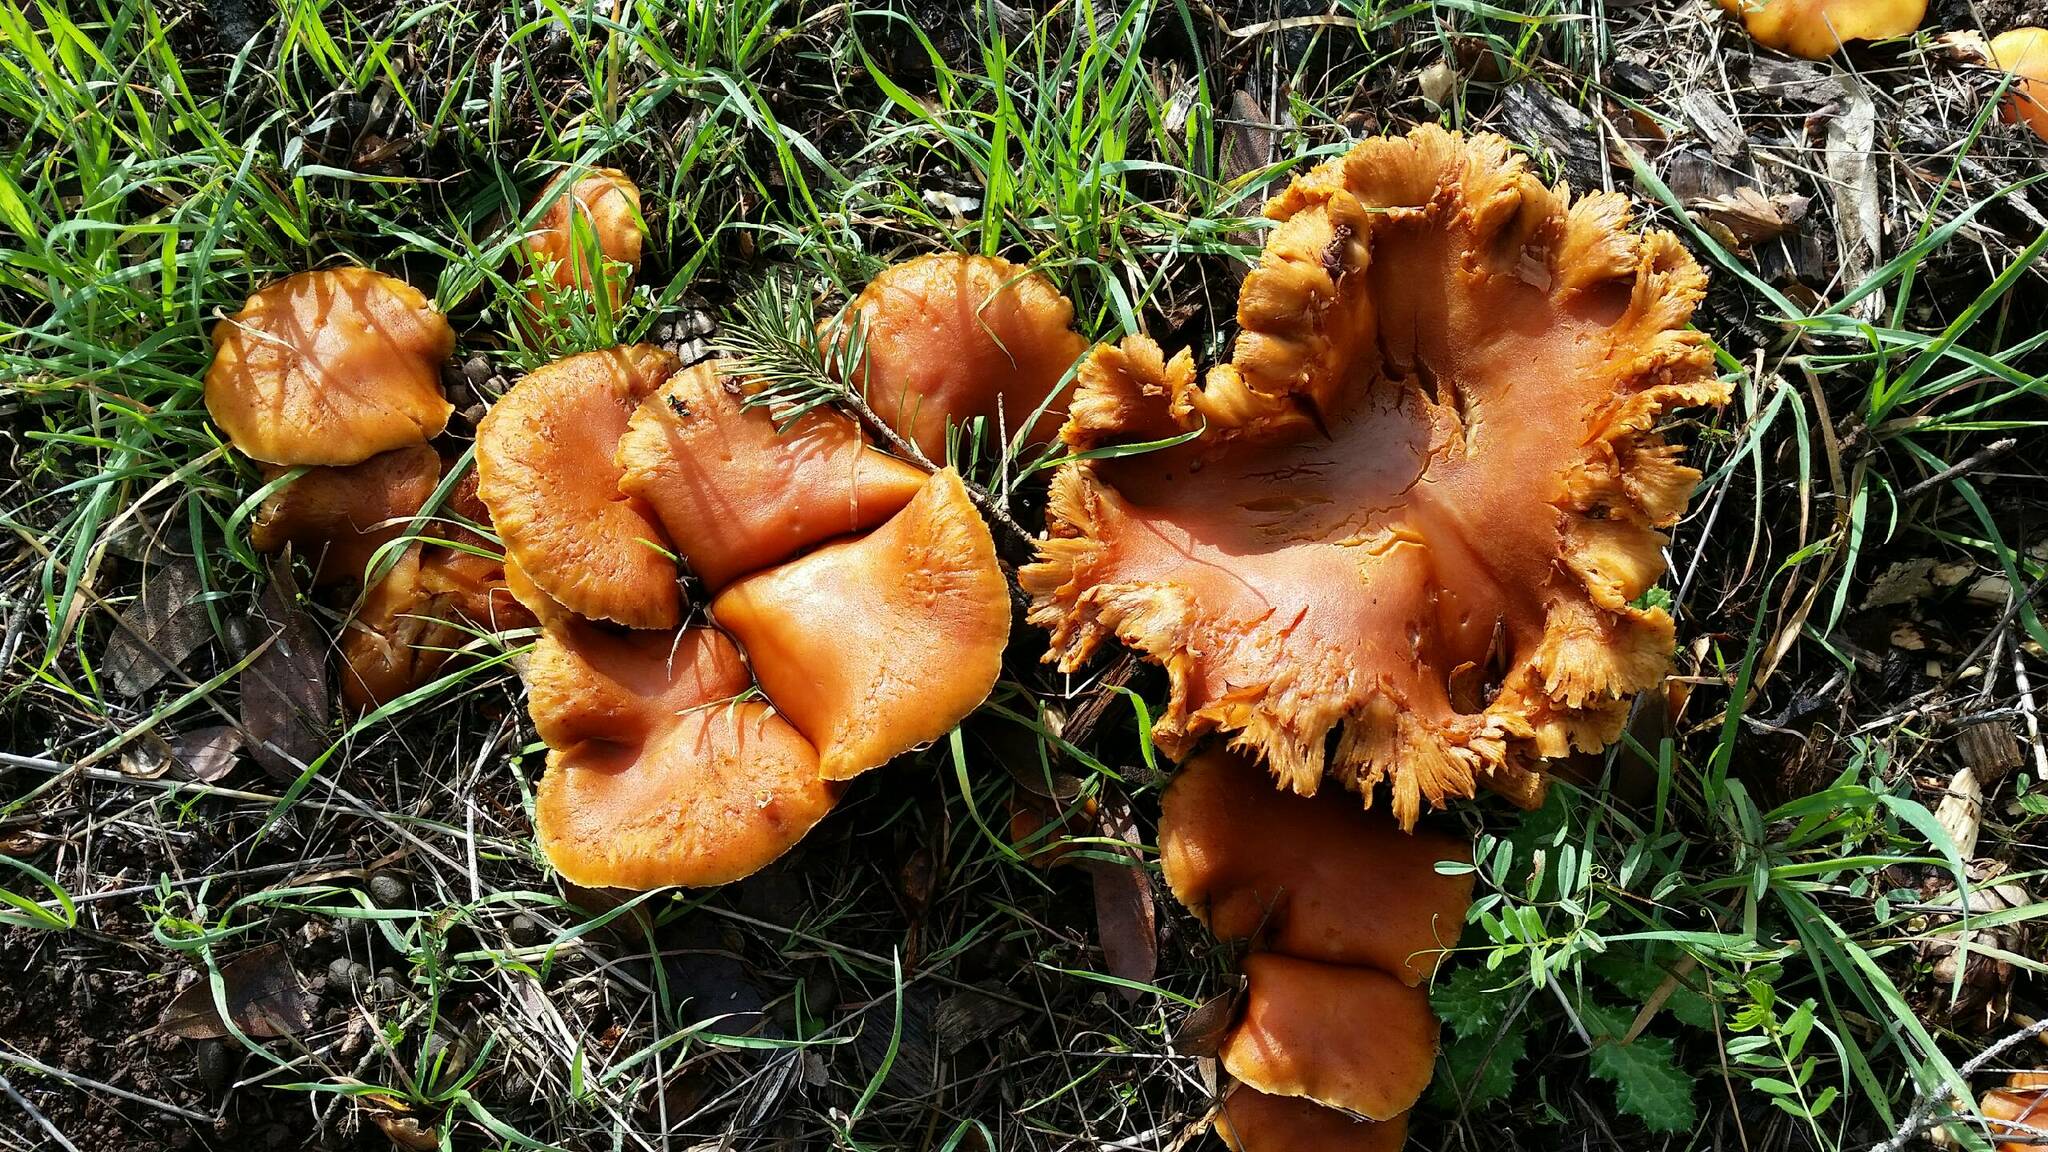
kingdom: Fungi
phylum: Basidiomycota
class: Agaricomycetes
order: Agaricales
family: Hymenogastraceae
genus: Gymnopilus
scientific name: Gymnopilus aurantiophyllus
